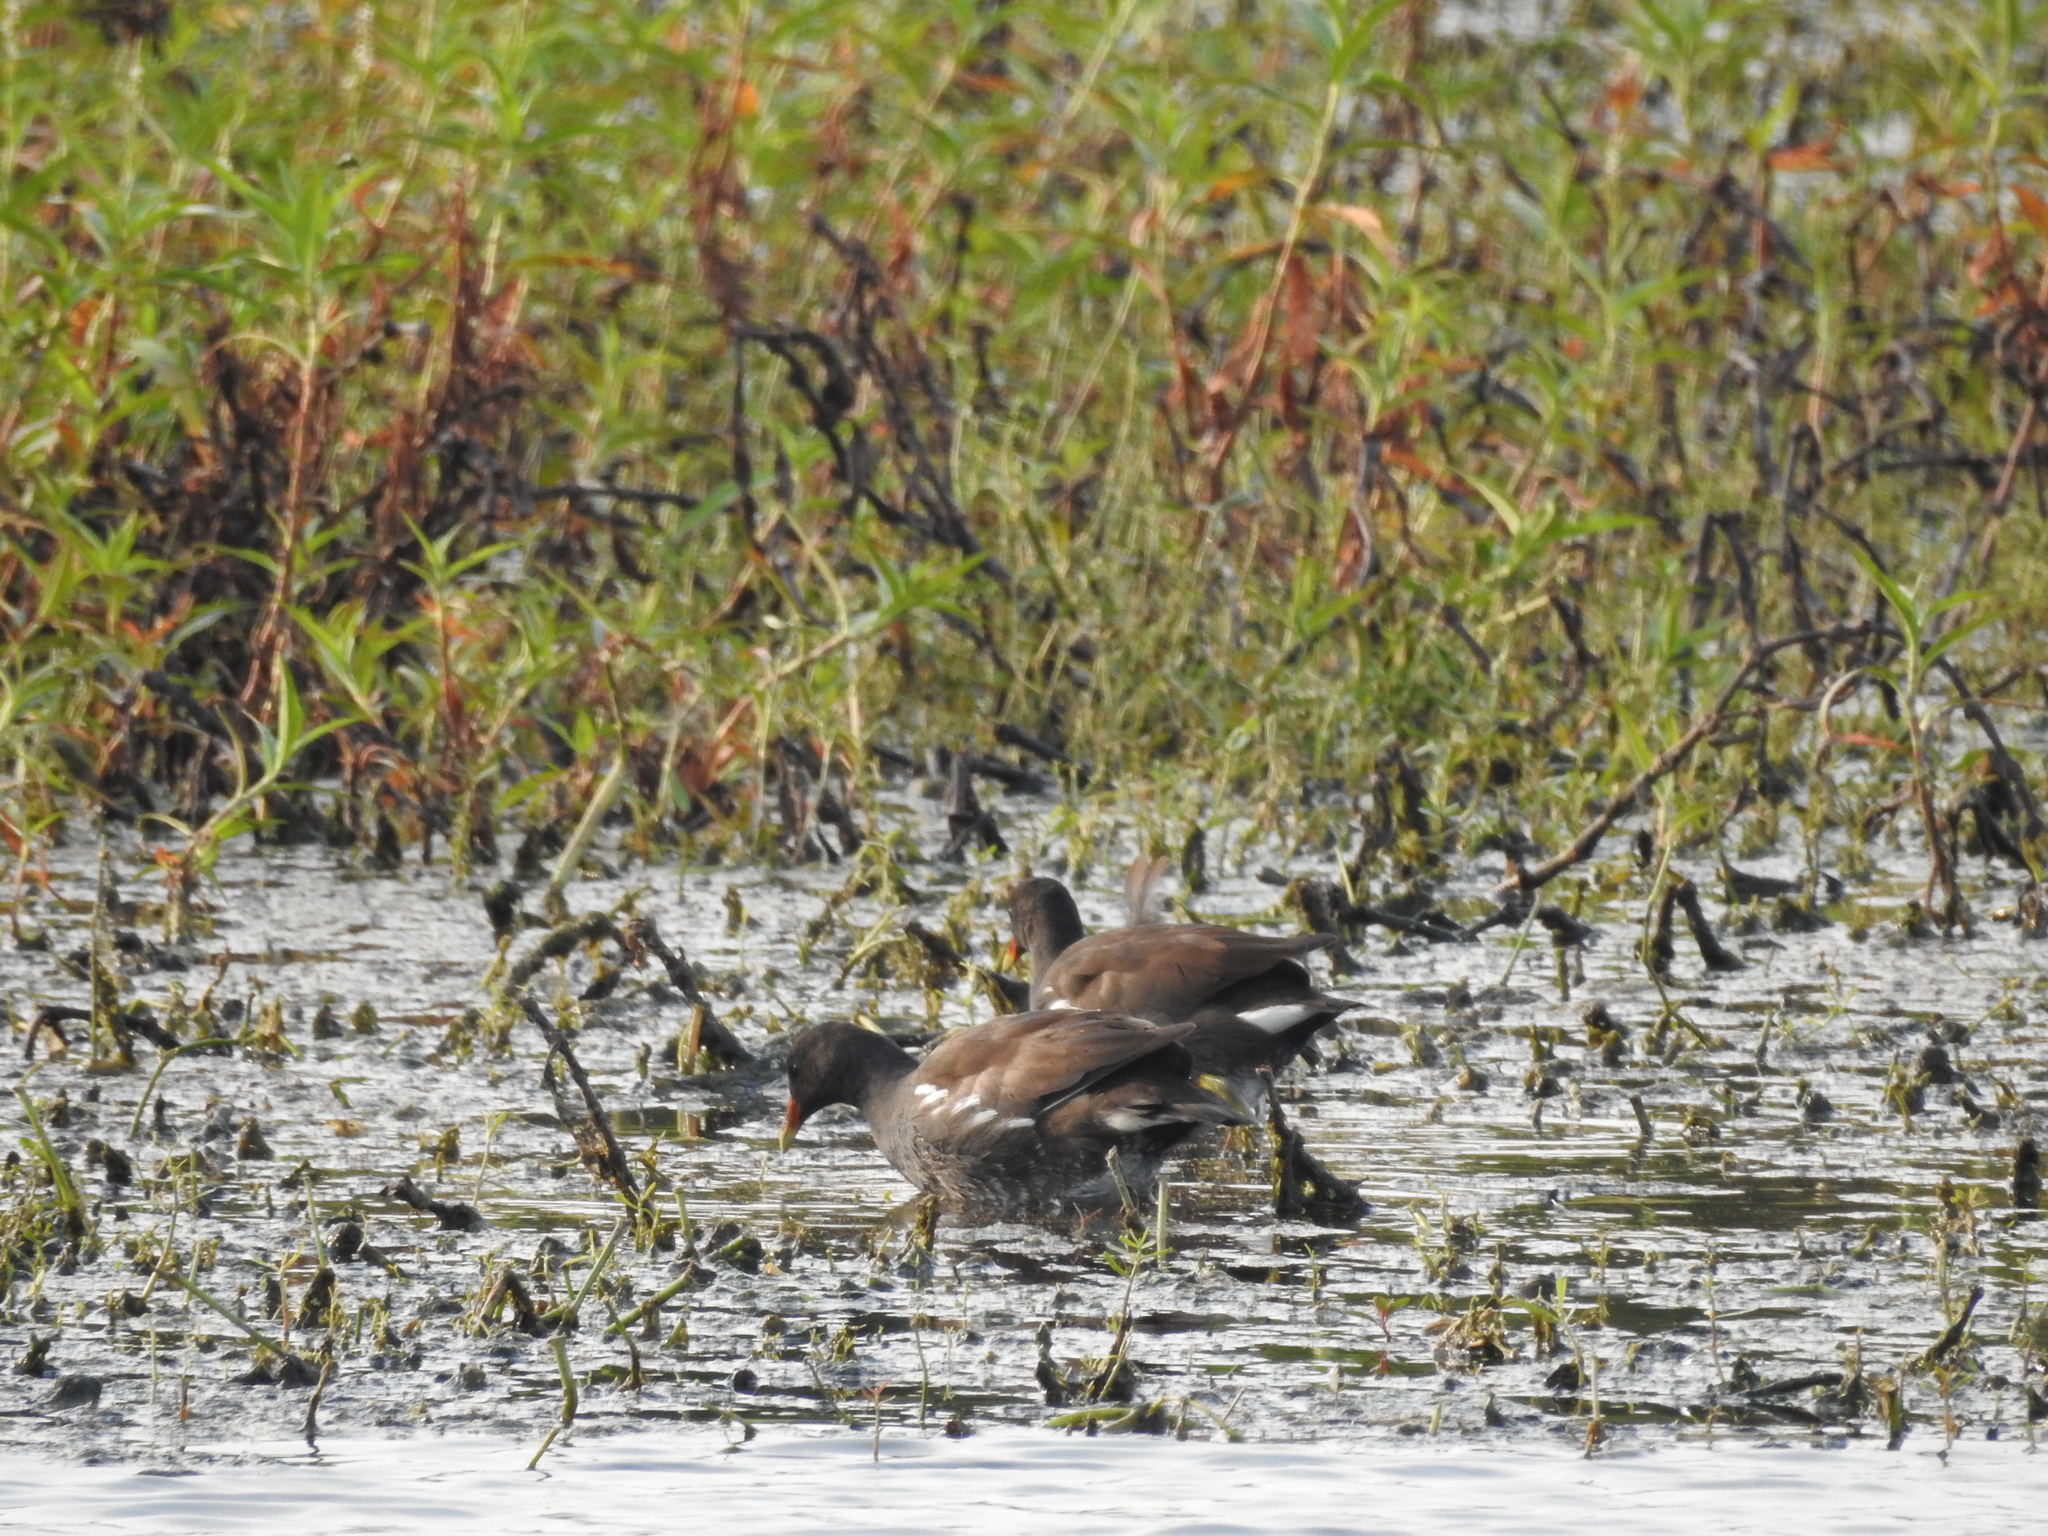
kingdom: Animalia
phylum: Chordata
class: Aves
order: Gruiformes
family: Rallidae
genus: Gallinula
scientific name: Gallinula chloropus
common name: Common moorhen
